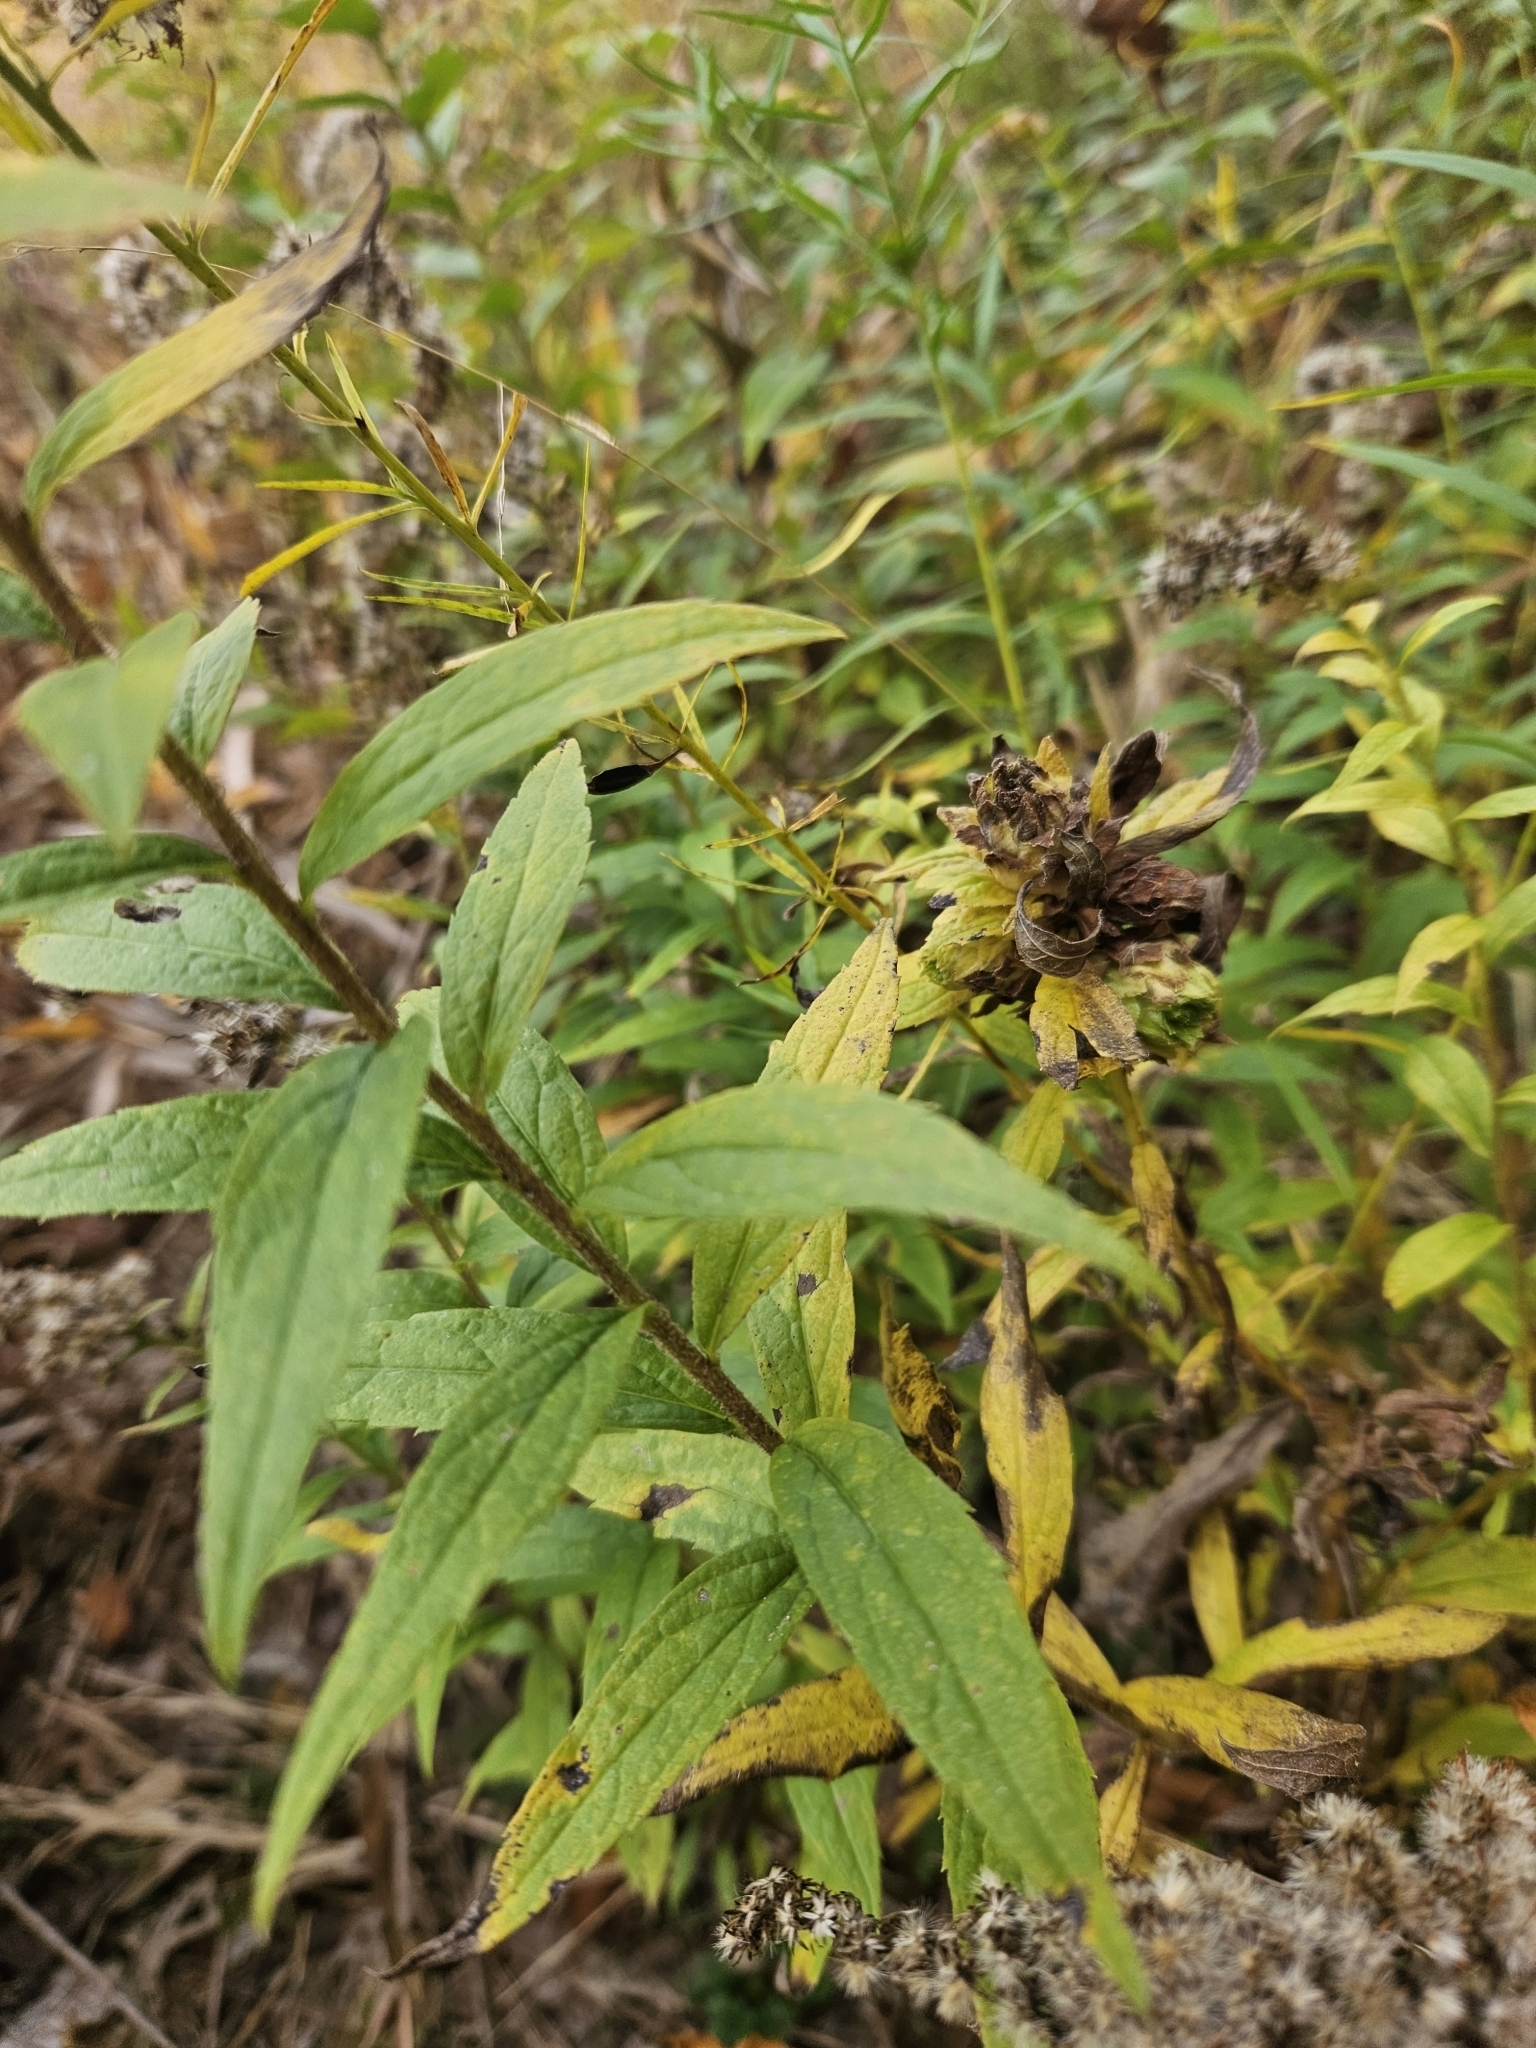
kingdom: Plantae
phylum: Tracheophyta
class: Magnoliopsida
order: Asterales
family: Asteraceae
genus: Solidago
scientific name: Solidago rugosa
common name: Rough-stemmed goldenrod
